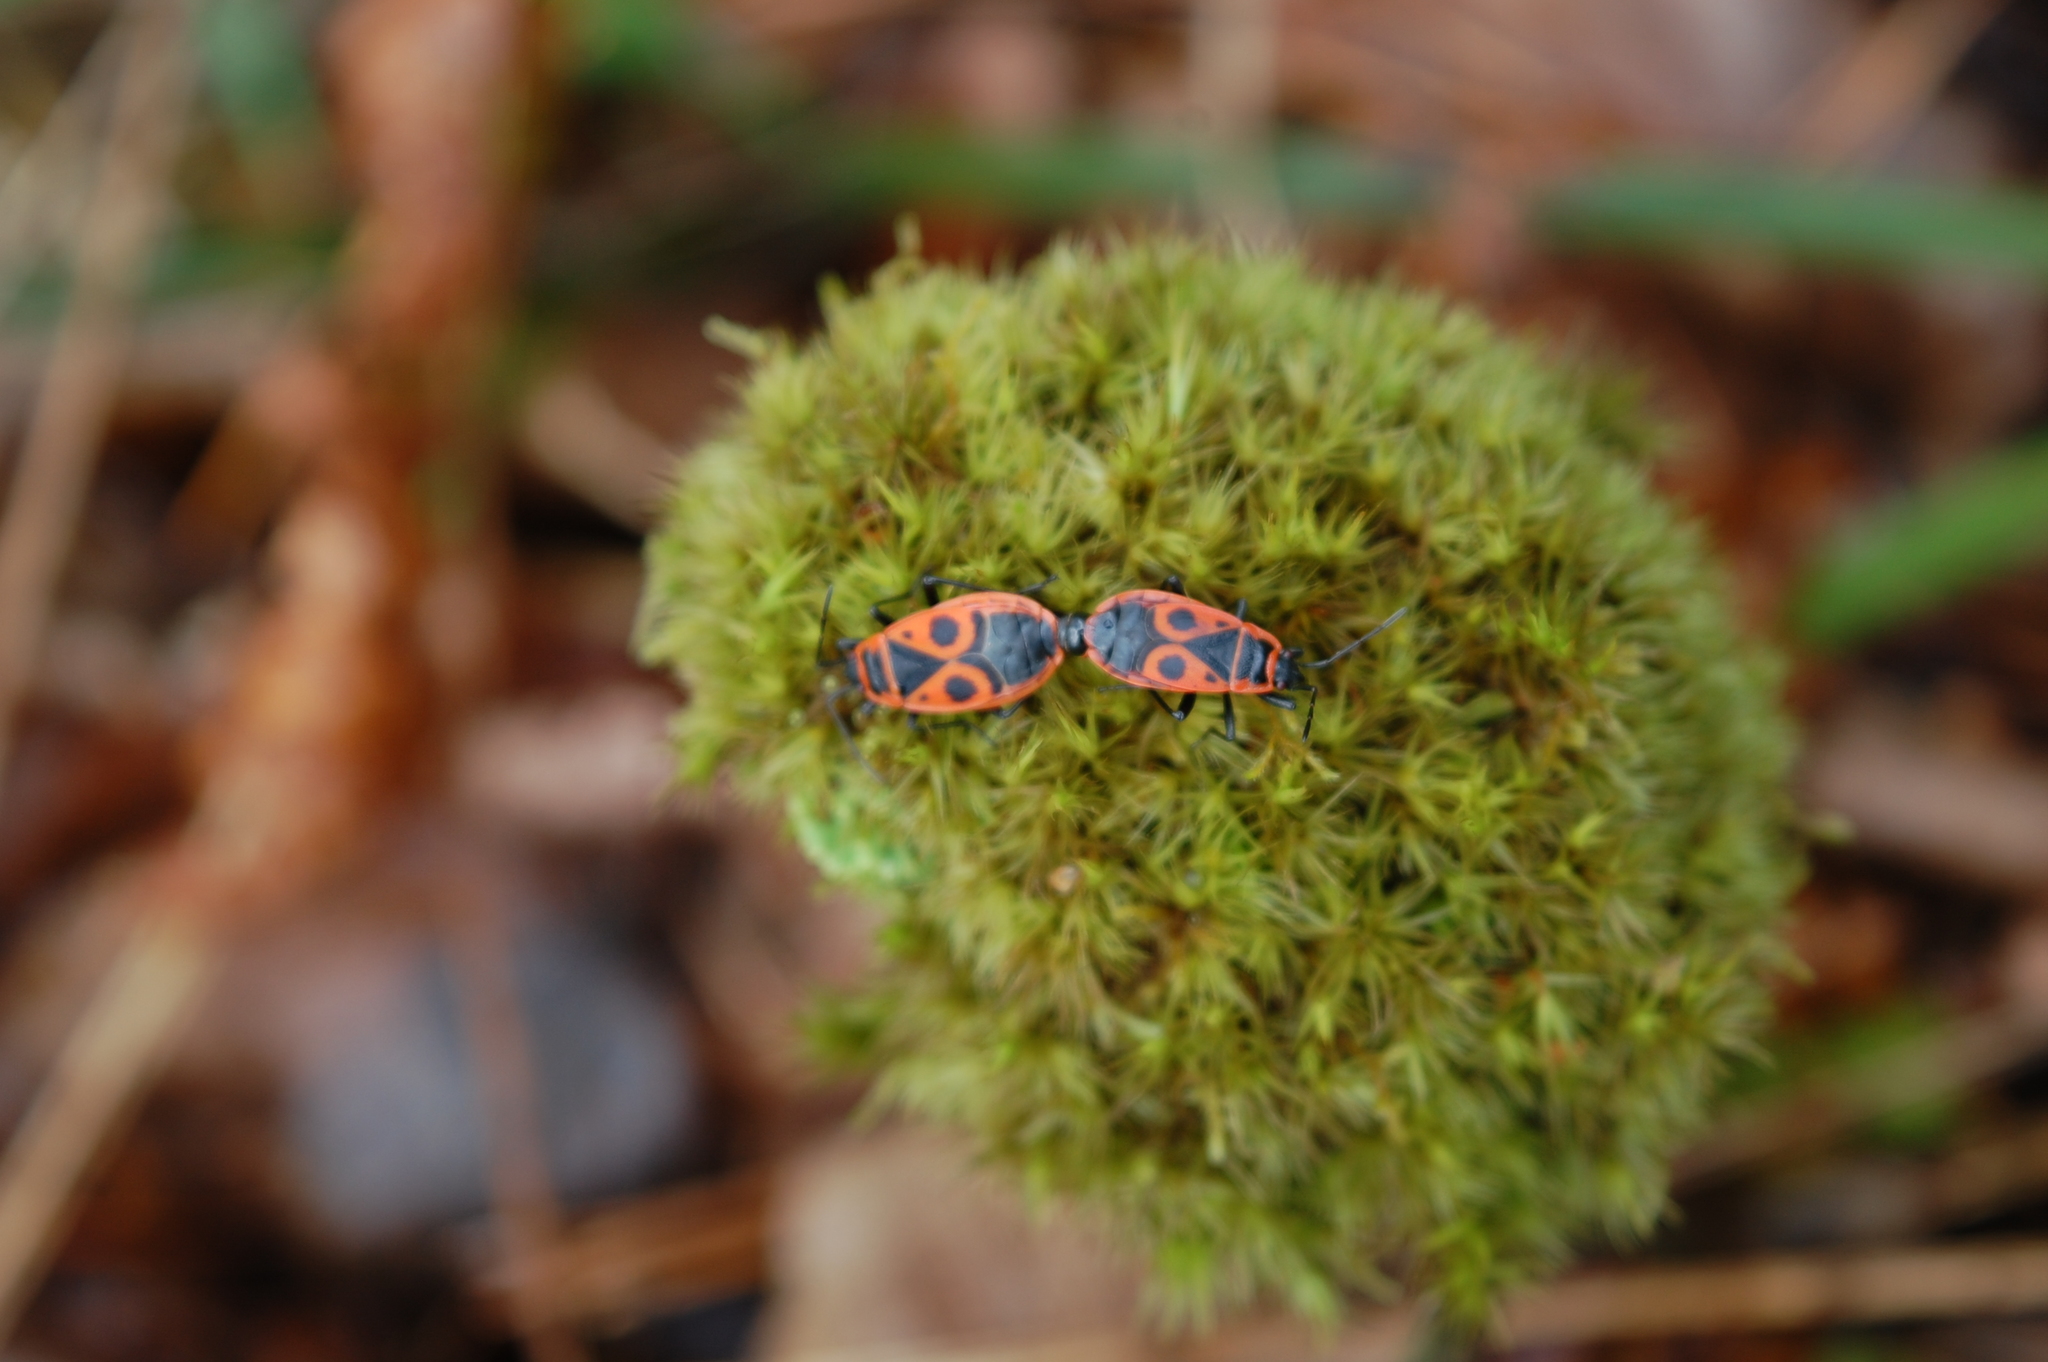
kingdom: Animalia
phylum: Arthropoda
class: Insecta
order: Hemiptera
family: Pyrrhocoridae
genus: Pyrrhocoris
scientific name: Pyrrhocoris apterus
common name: Firebug
